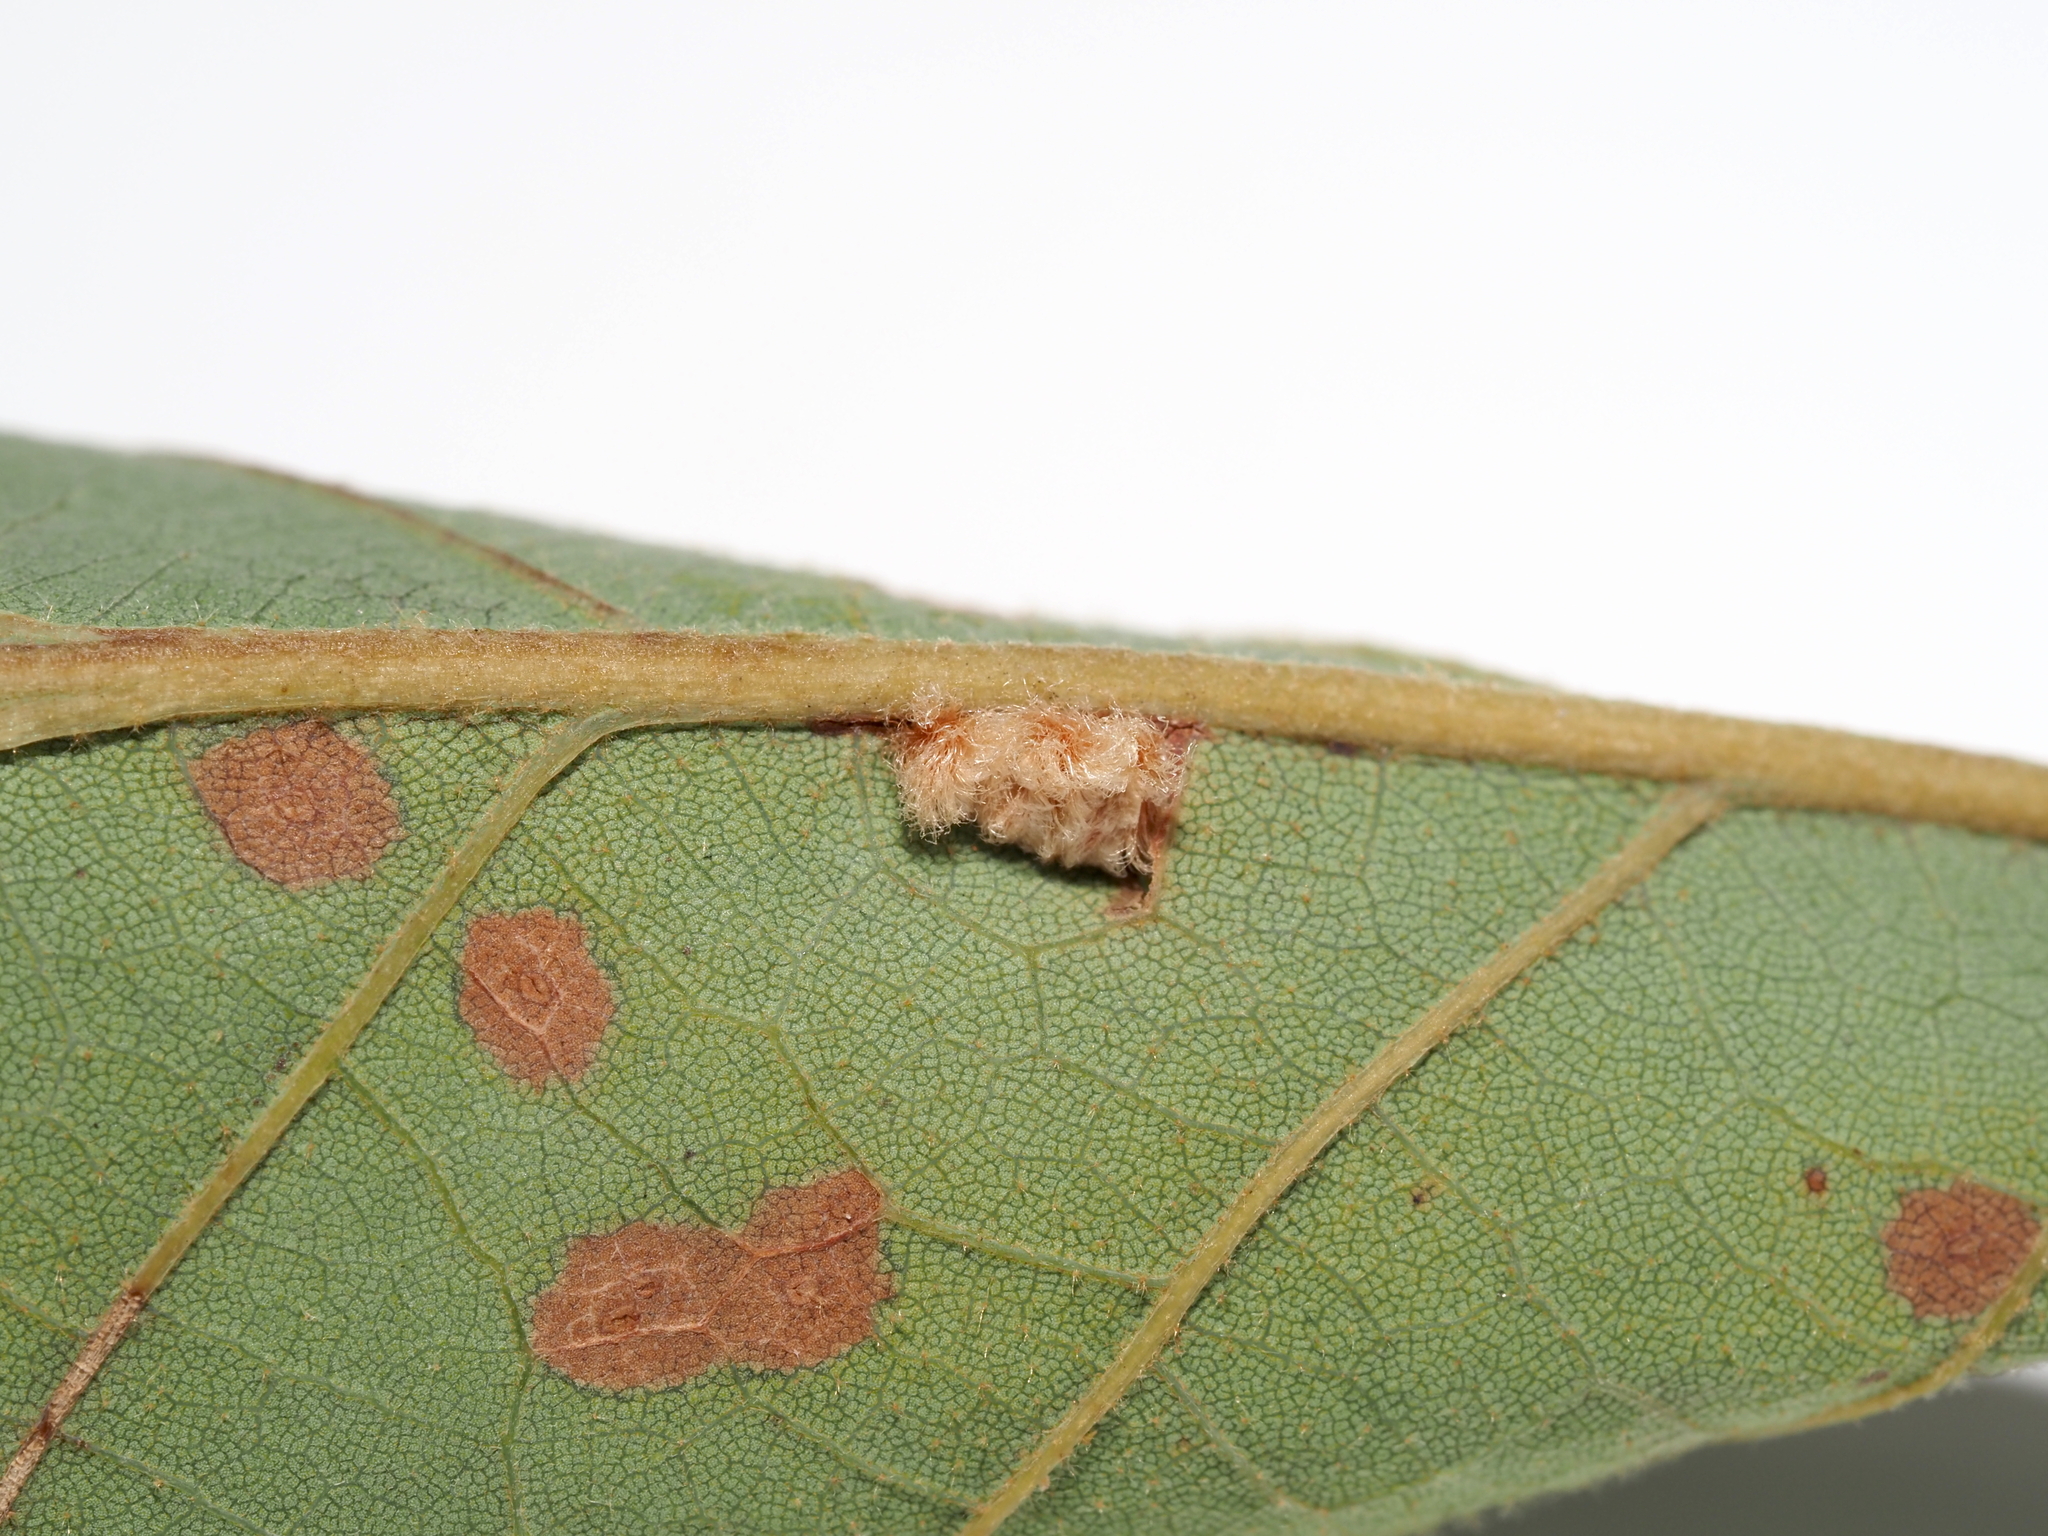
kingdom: Animalia
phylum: Arthropoda
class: Insecta
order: Hymenoptera
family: Cynipidae
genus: Andricus
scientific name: Andricus Druon pattoni
